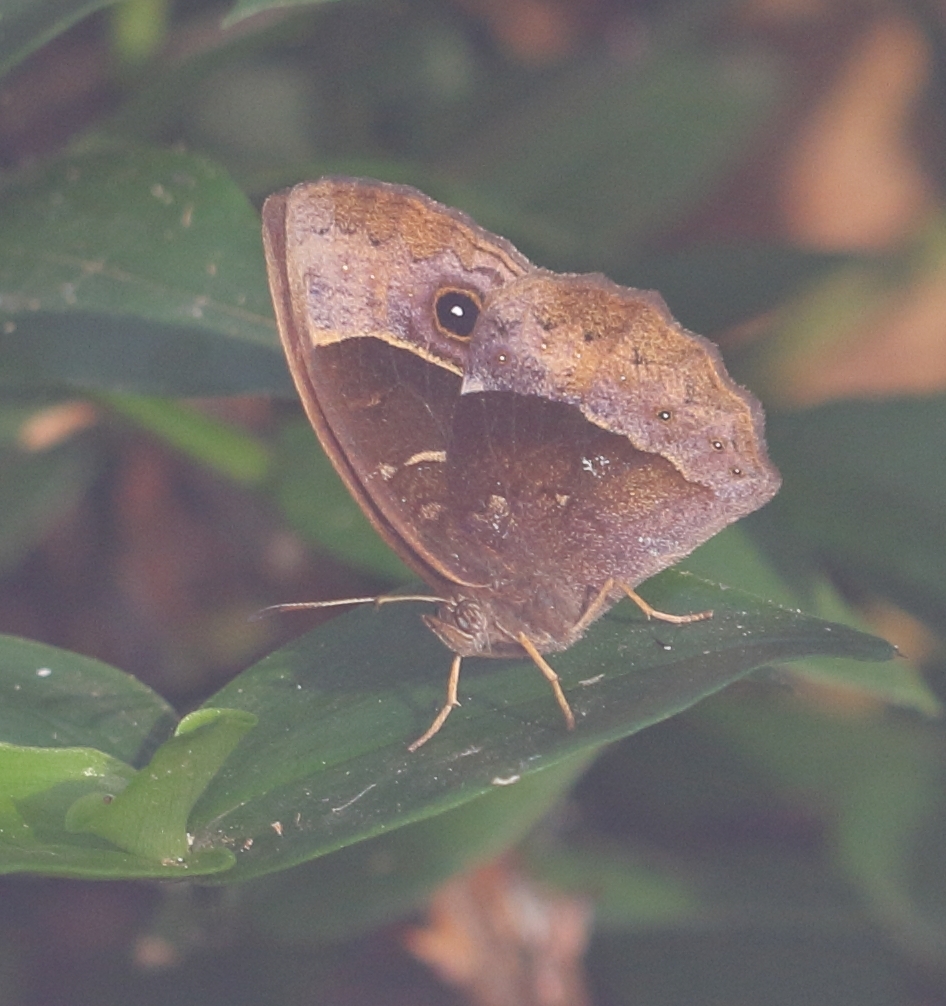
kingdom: Animalia
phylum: Arthropoda
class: Insecta
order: Lepidoptera
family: Nymphalidae
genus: Mycalesis
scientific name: Mycalesis rhacotis
